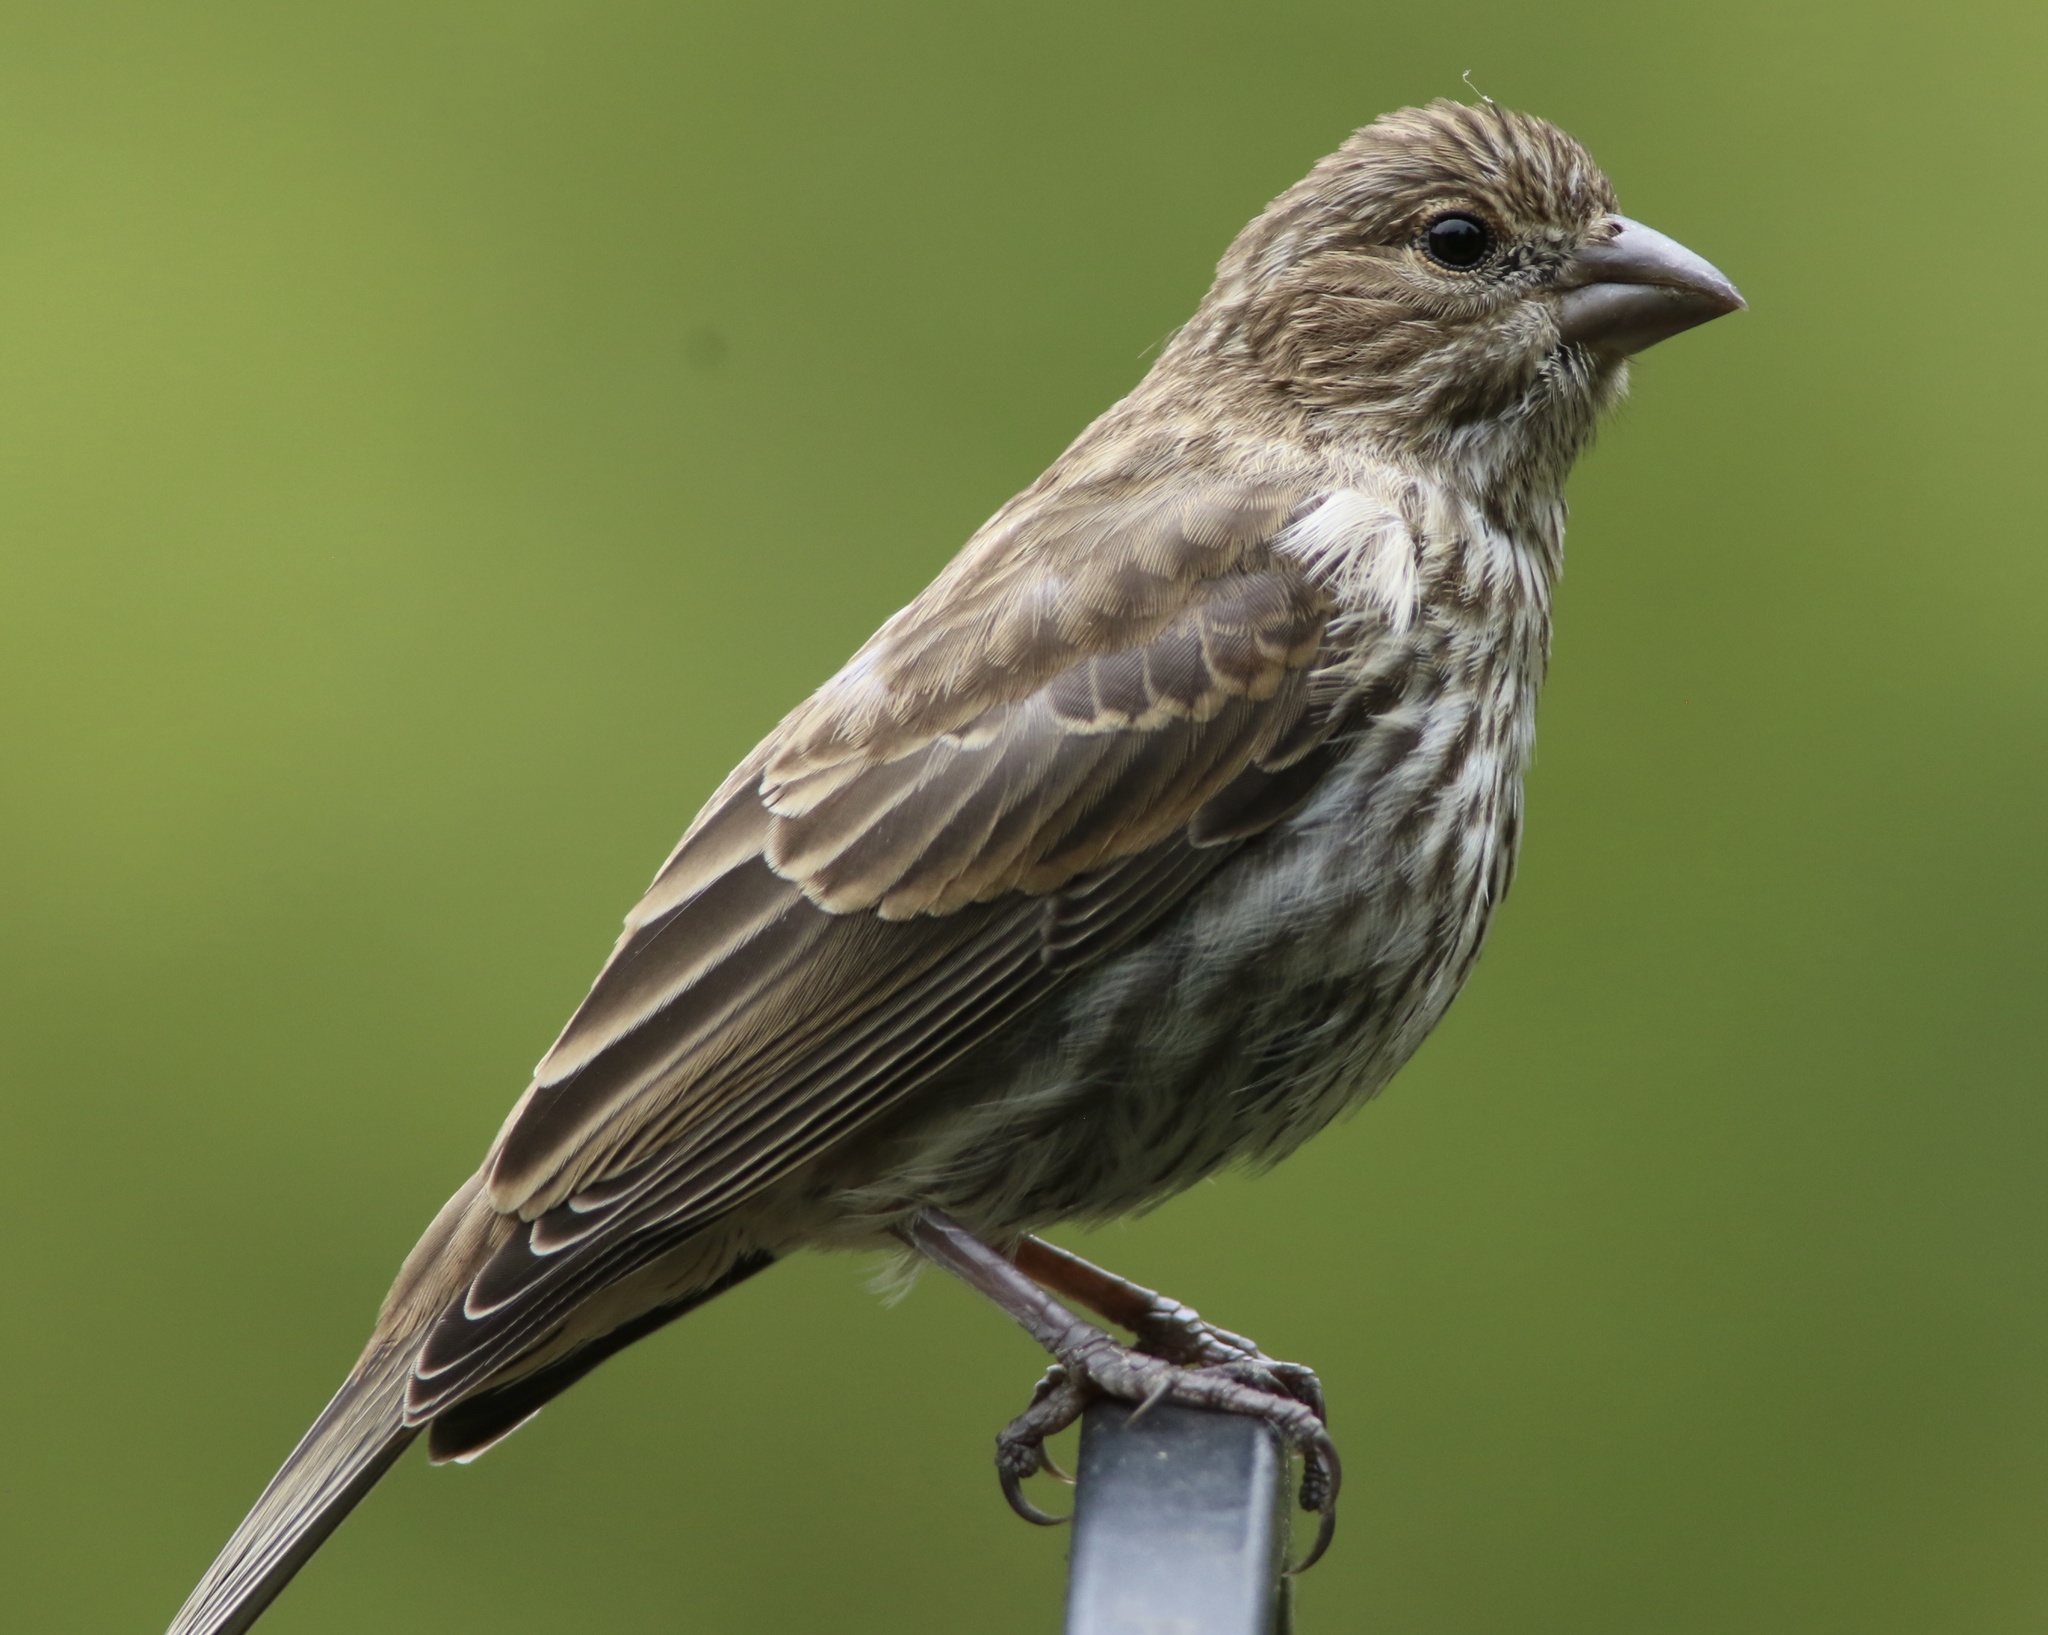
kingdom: Animalia
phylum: Chordata
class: Aves
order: Passeriformes
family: Fringillidae
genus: Haemorhous
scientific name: Haemorhous mexicanus
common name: House finch
